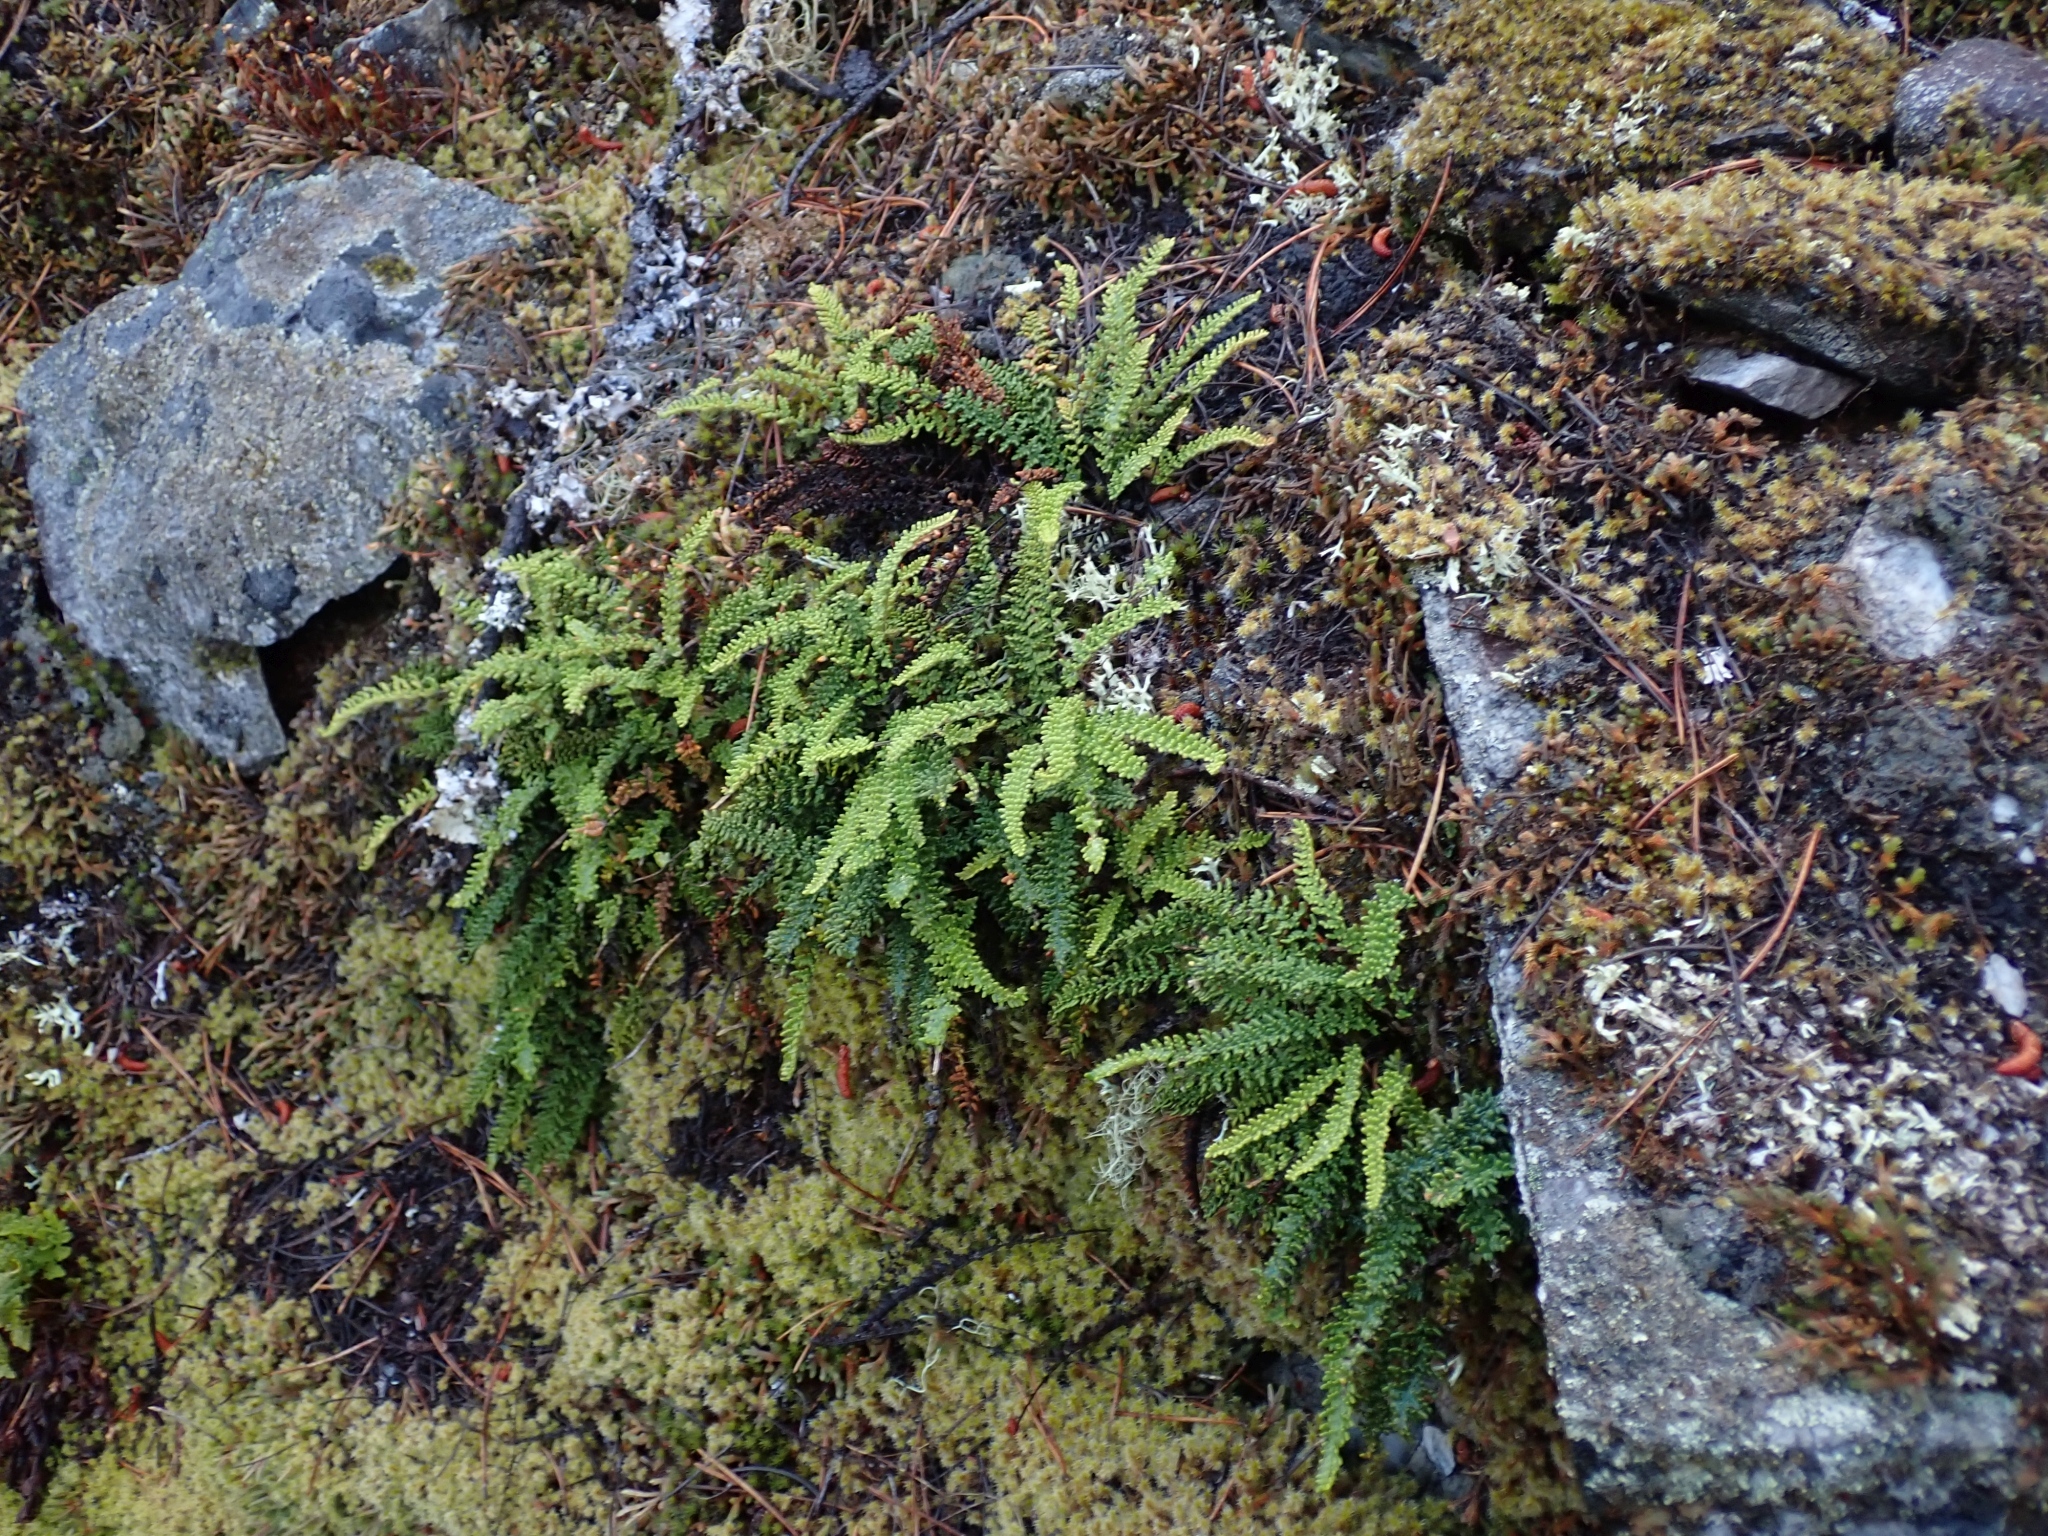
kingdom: Plantae
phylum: Tracheophyta
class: Polypodiopsida
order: Polypodiales
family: Pteridaceae
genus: Myriopteris
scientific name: Myriopteris gracillima
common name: Lace fern
